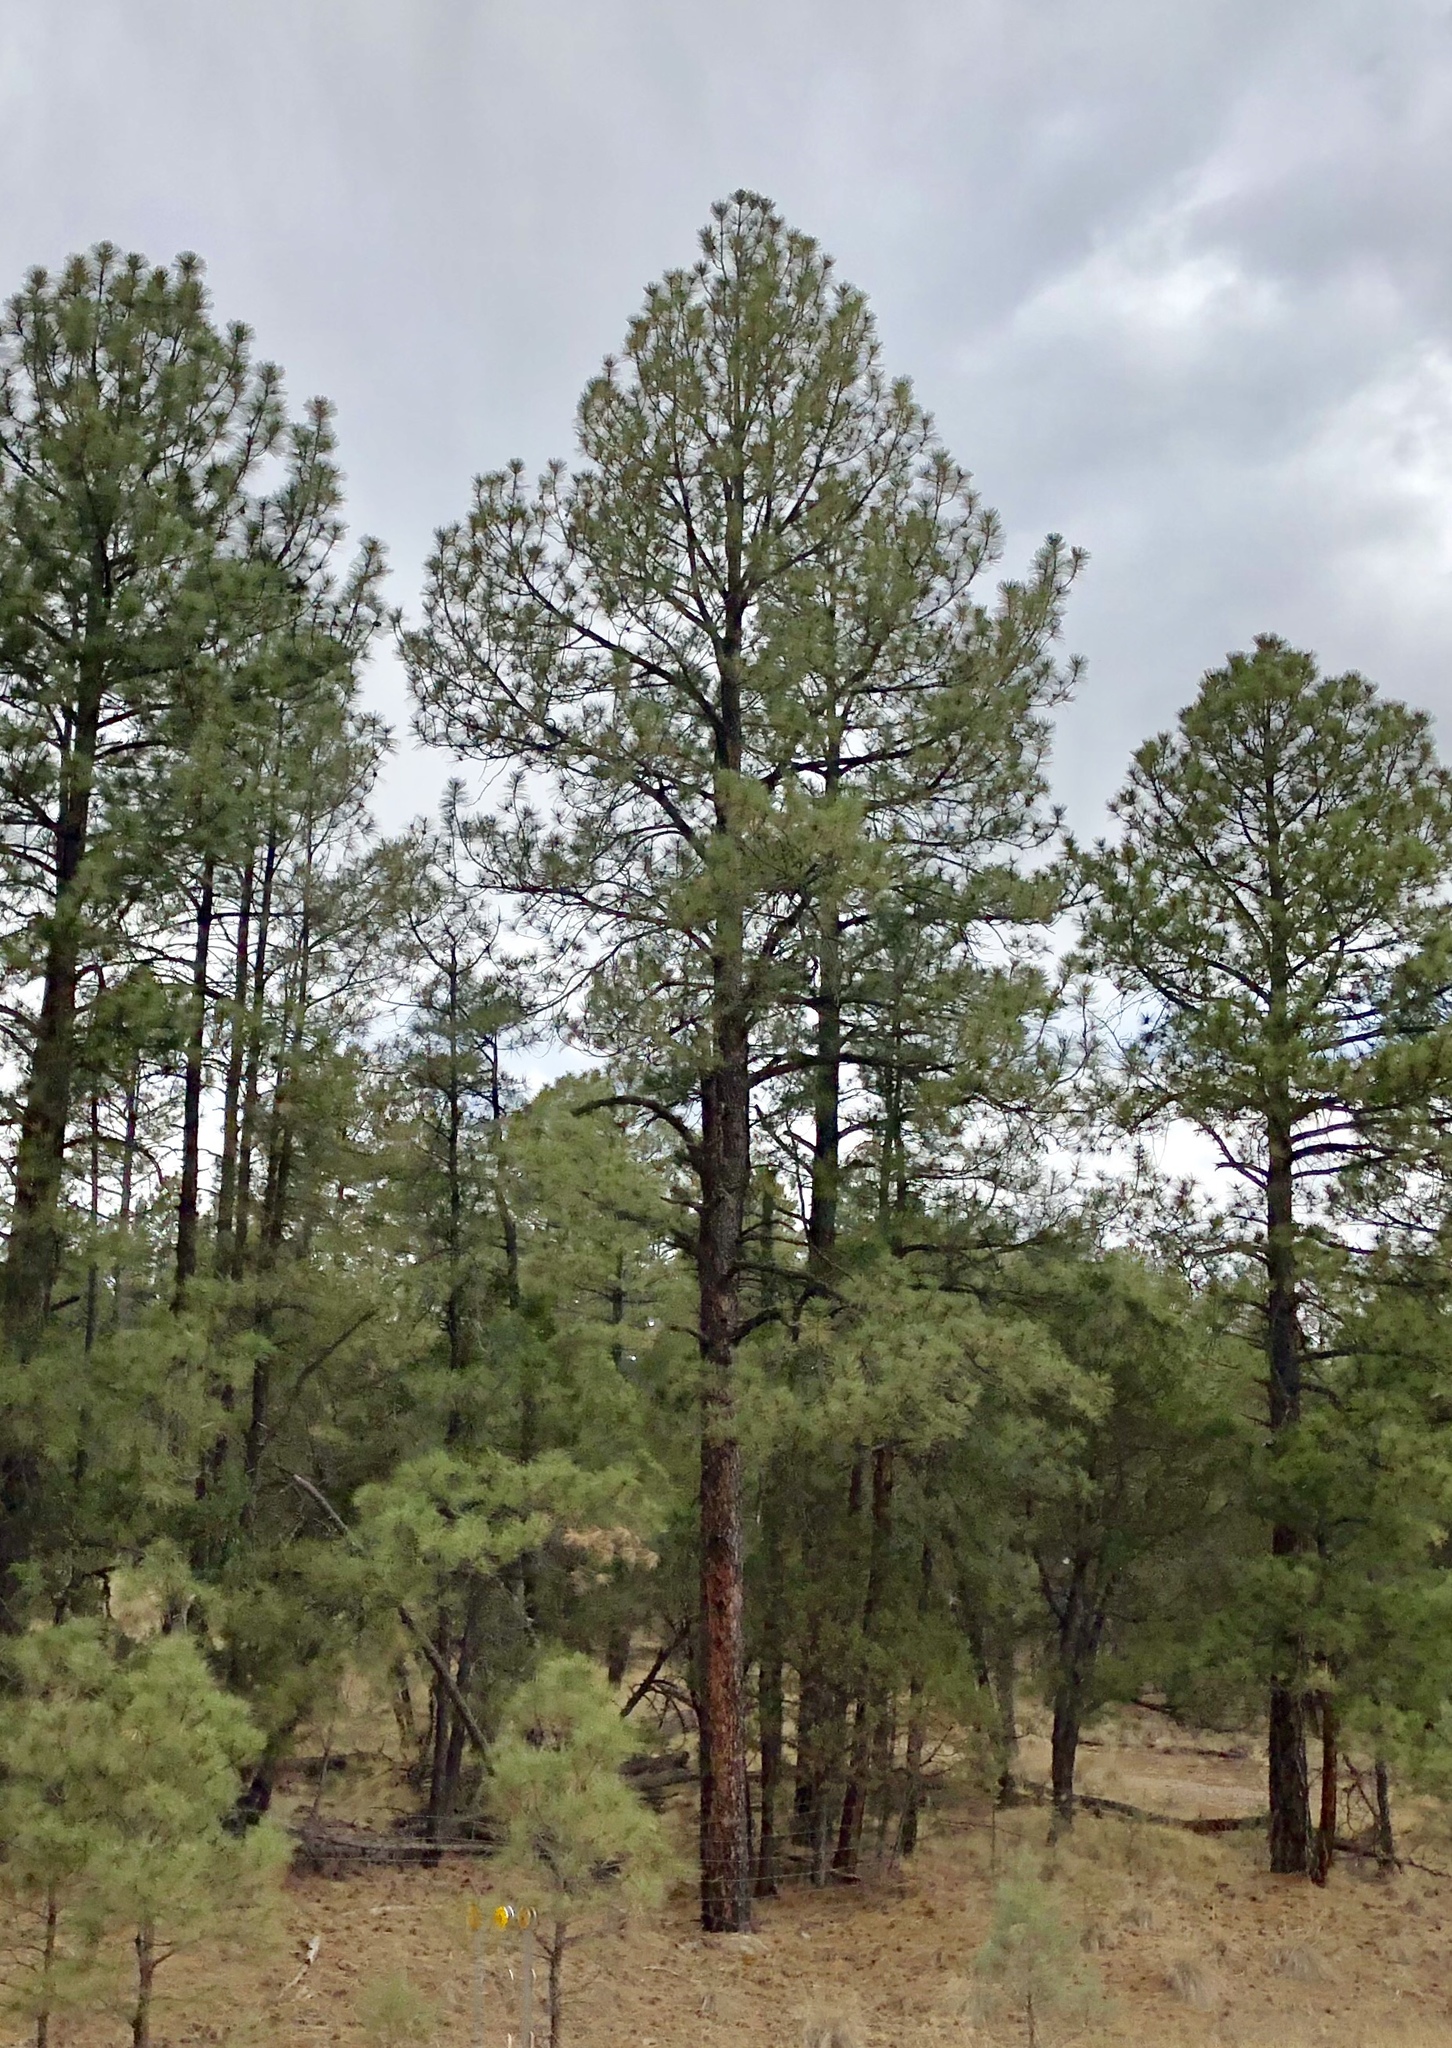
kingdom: Plantae
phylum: Tracheophyta
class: Pinopsida
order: Pinales
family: Pinaceae
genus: Pinus
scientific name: Pinus ponderosa
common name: Western yellow-pine
